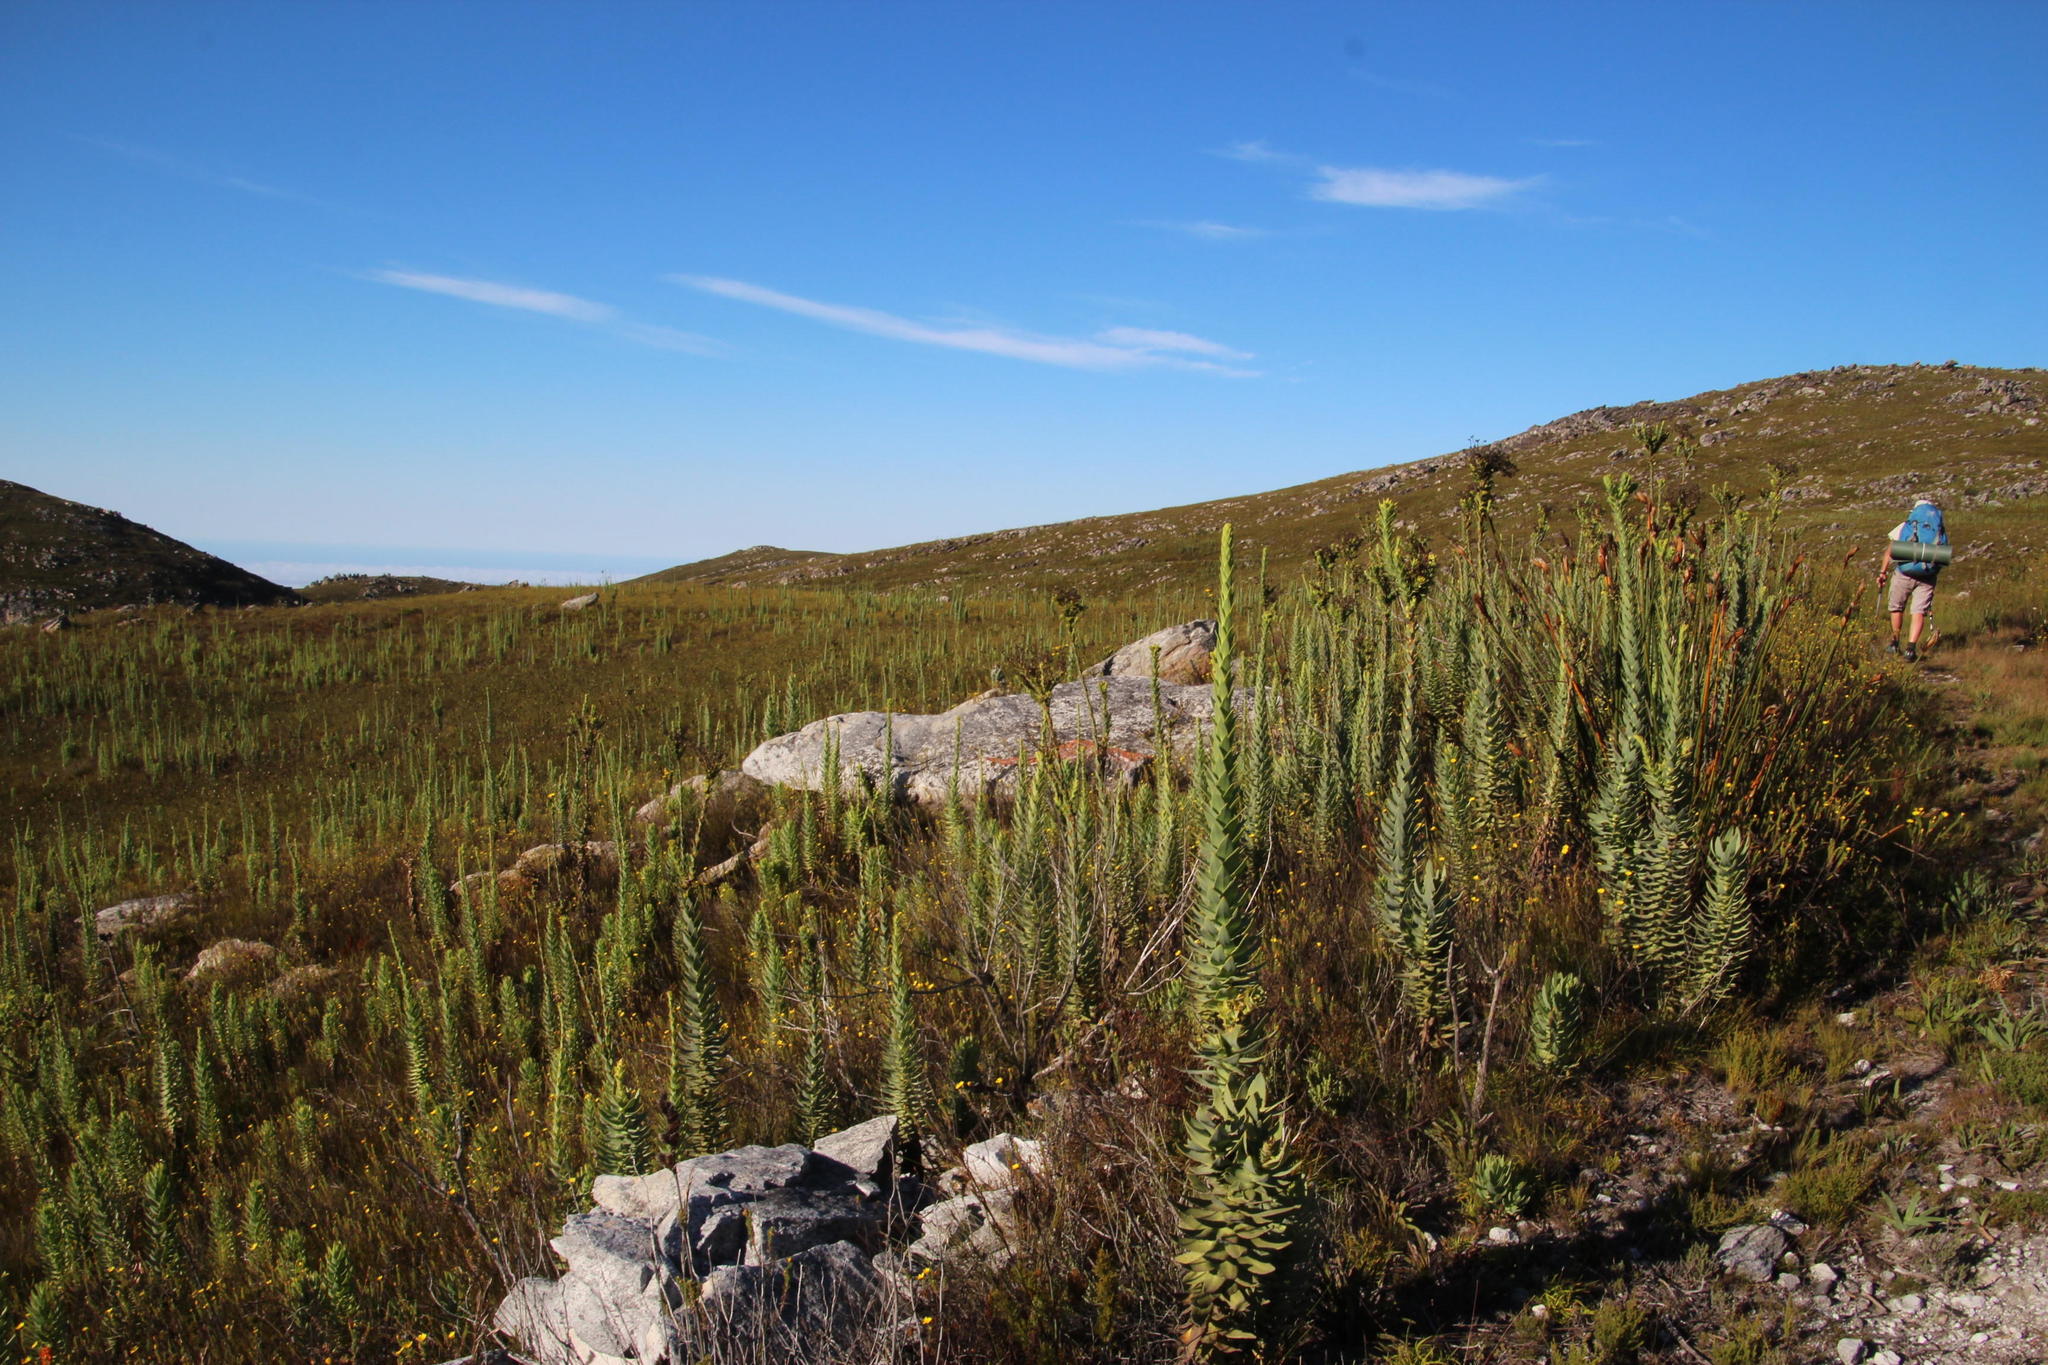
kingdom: Plantae
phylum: Tracheophyta
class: Magnoliopsida
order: Asterales
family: Asteraceae
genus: Osteospermum
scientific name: Osteospermum corymbosum
